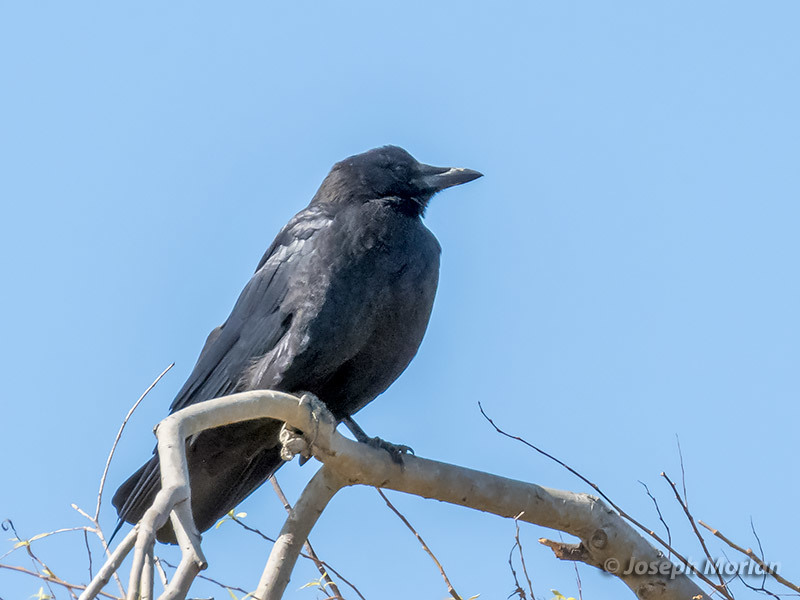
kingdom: Animalia
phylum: Chordata
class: Aves
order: Passeriformes
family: Corvidae
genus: Corvus
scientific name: Corvus brachyrhynchos
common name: American crow
